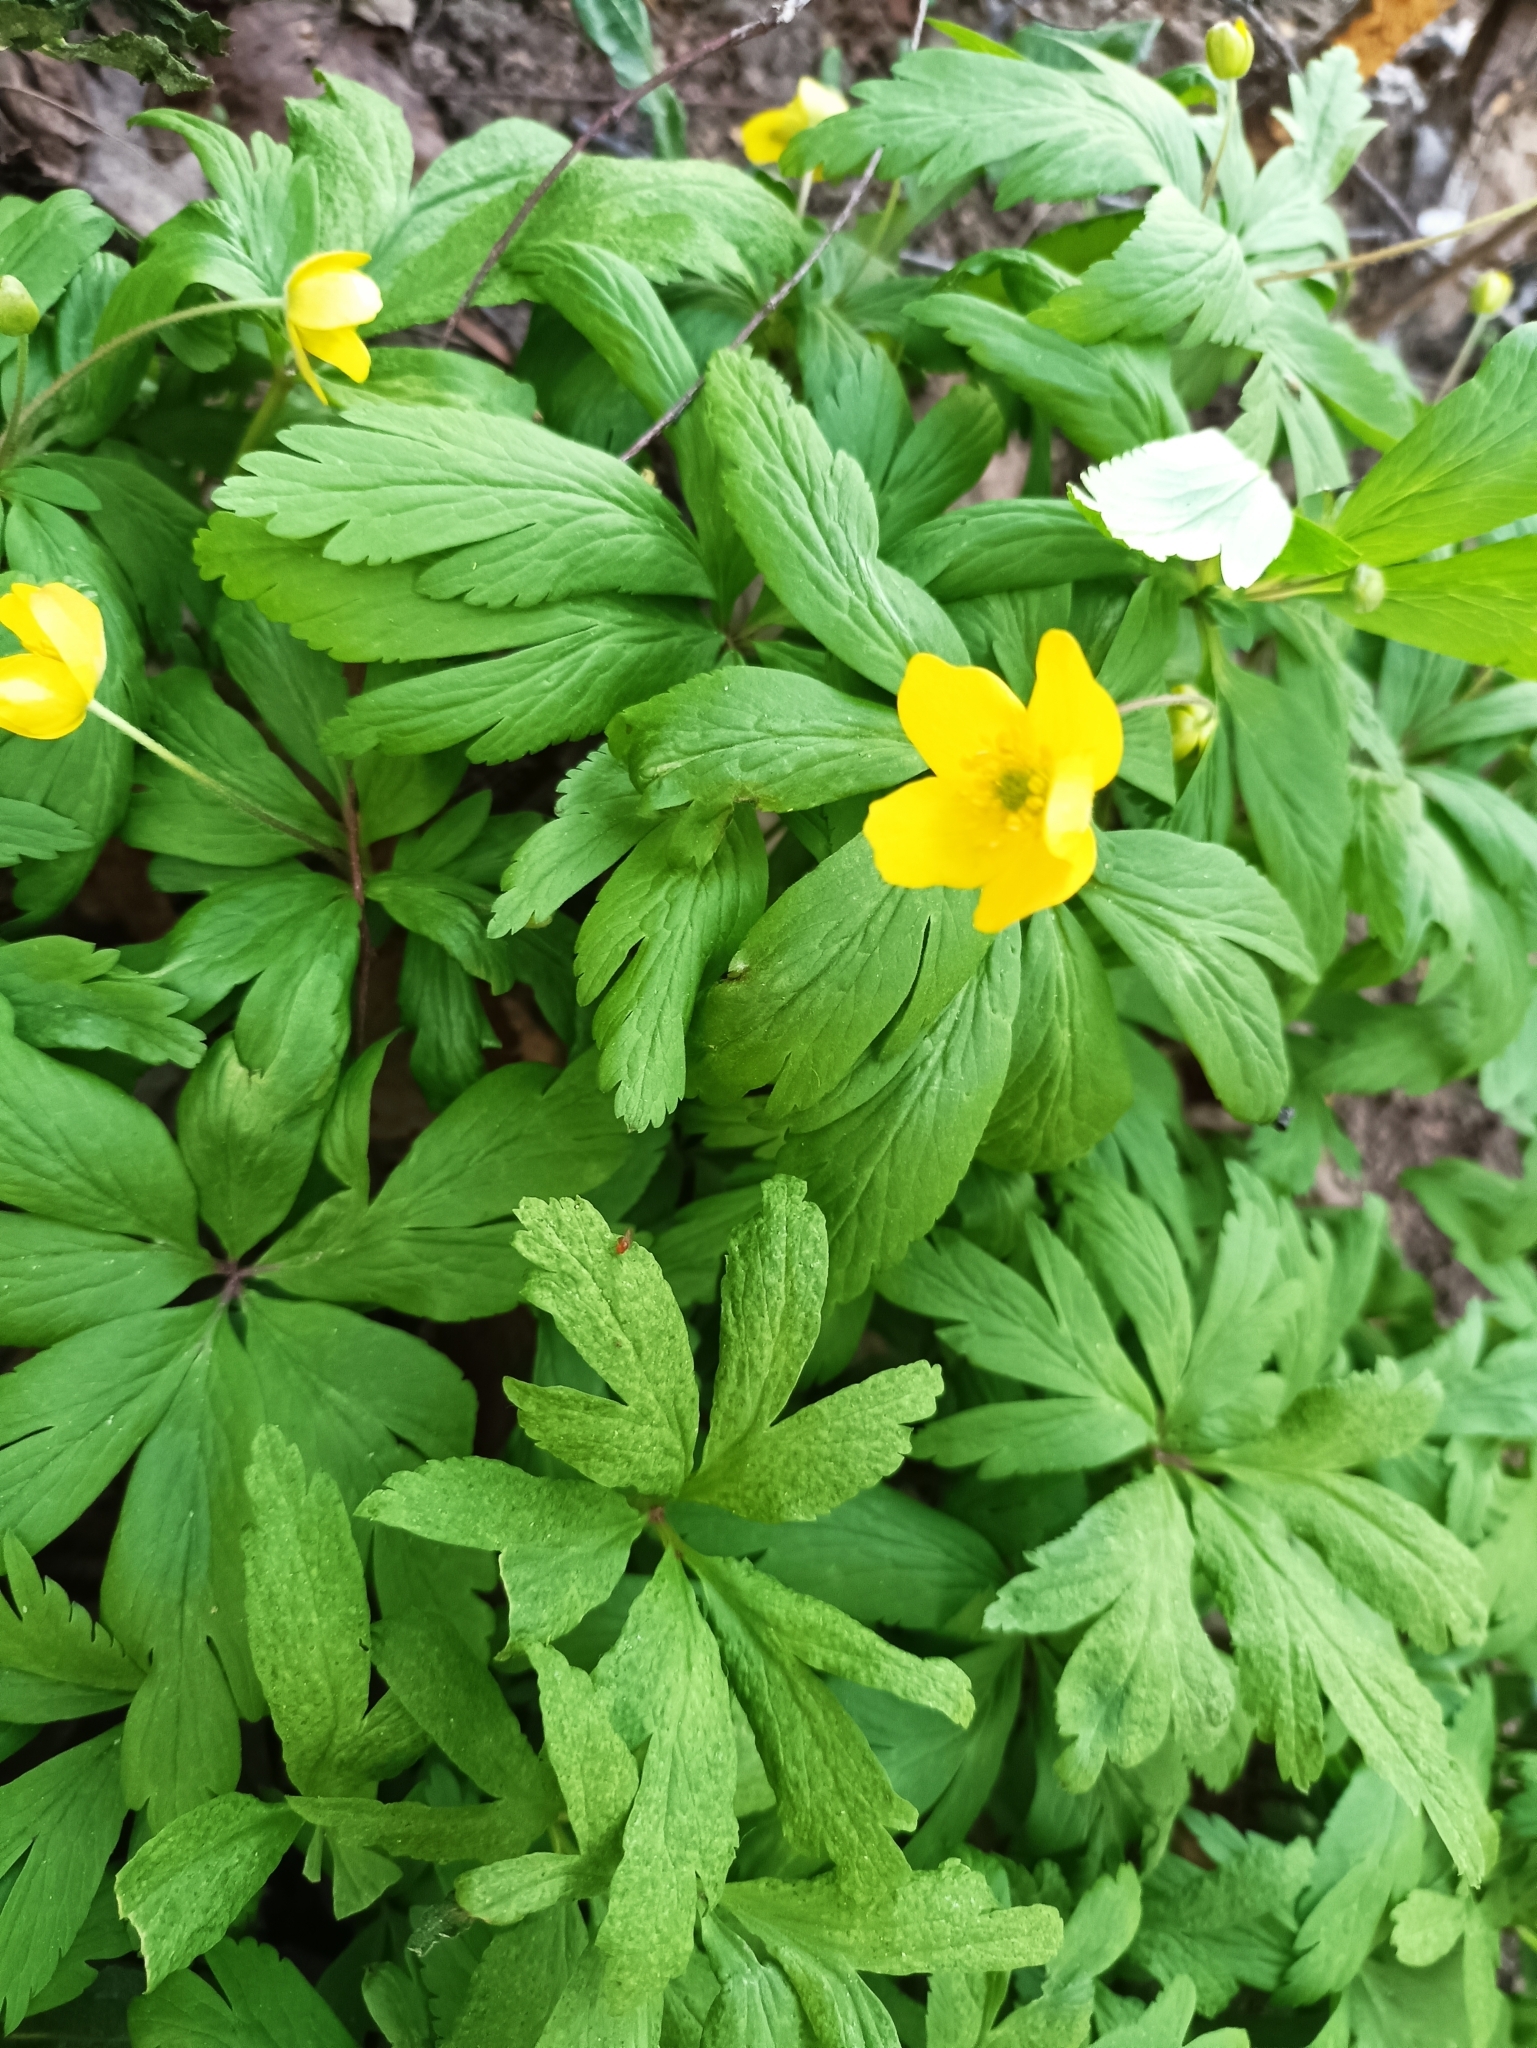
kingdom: Plantae
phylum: Tracheophyta
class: Magnoliopsida
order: Ranunculales
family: Ranunculaceae
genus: Anemone
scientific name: Anemone ranunculoides
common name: Yellow anemone
